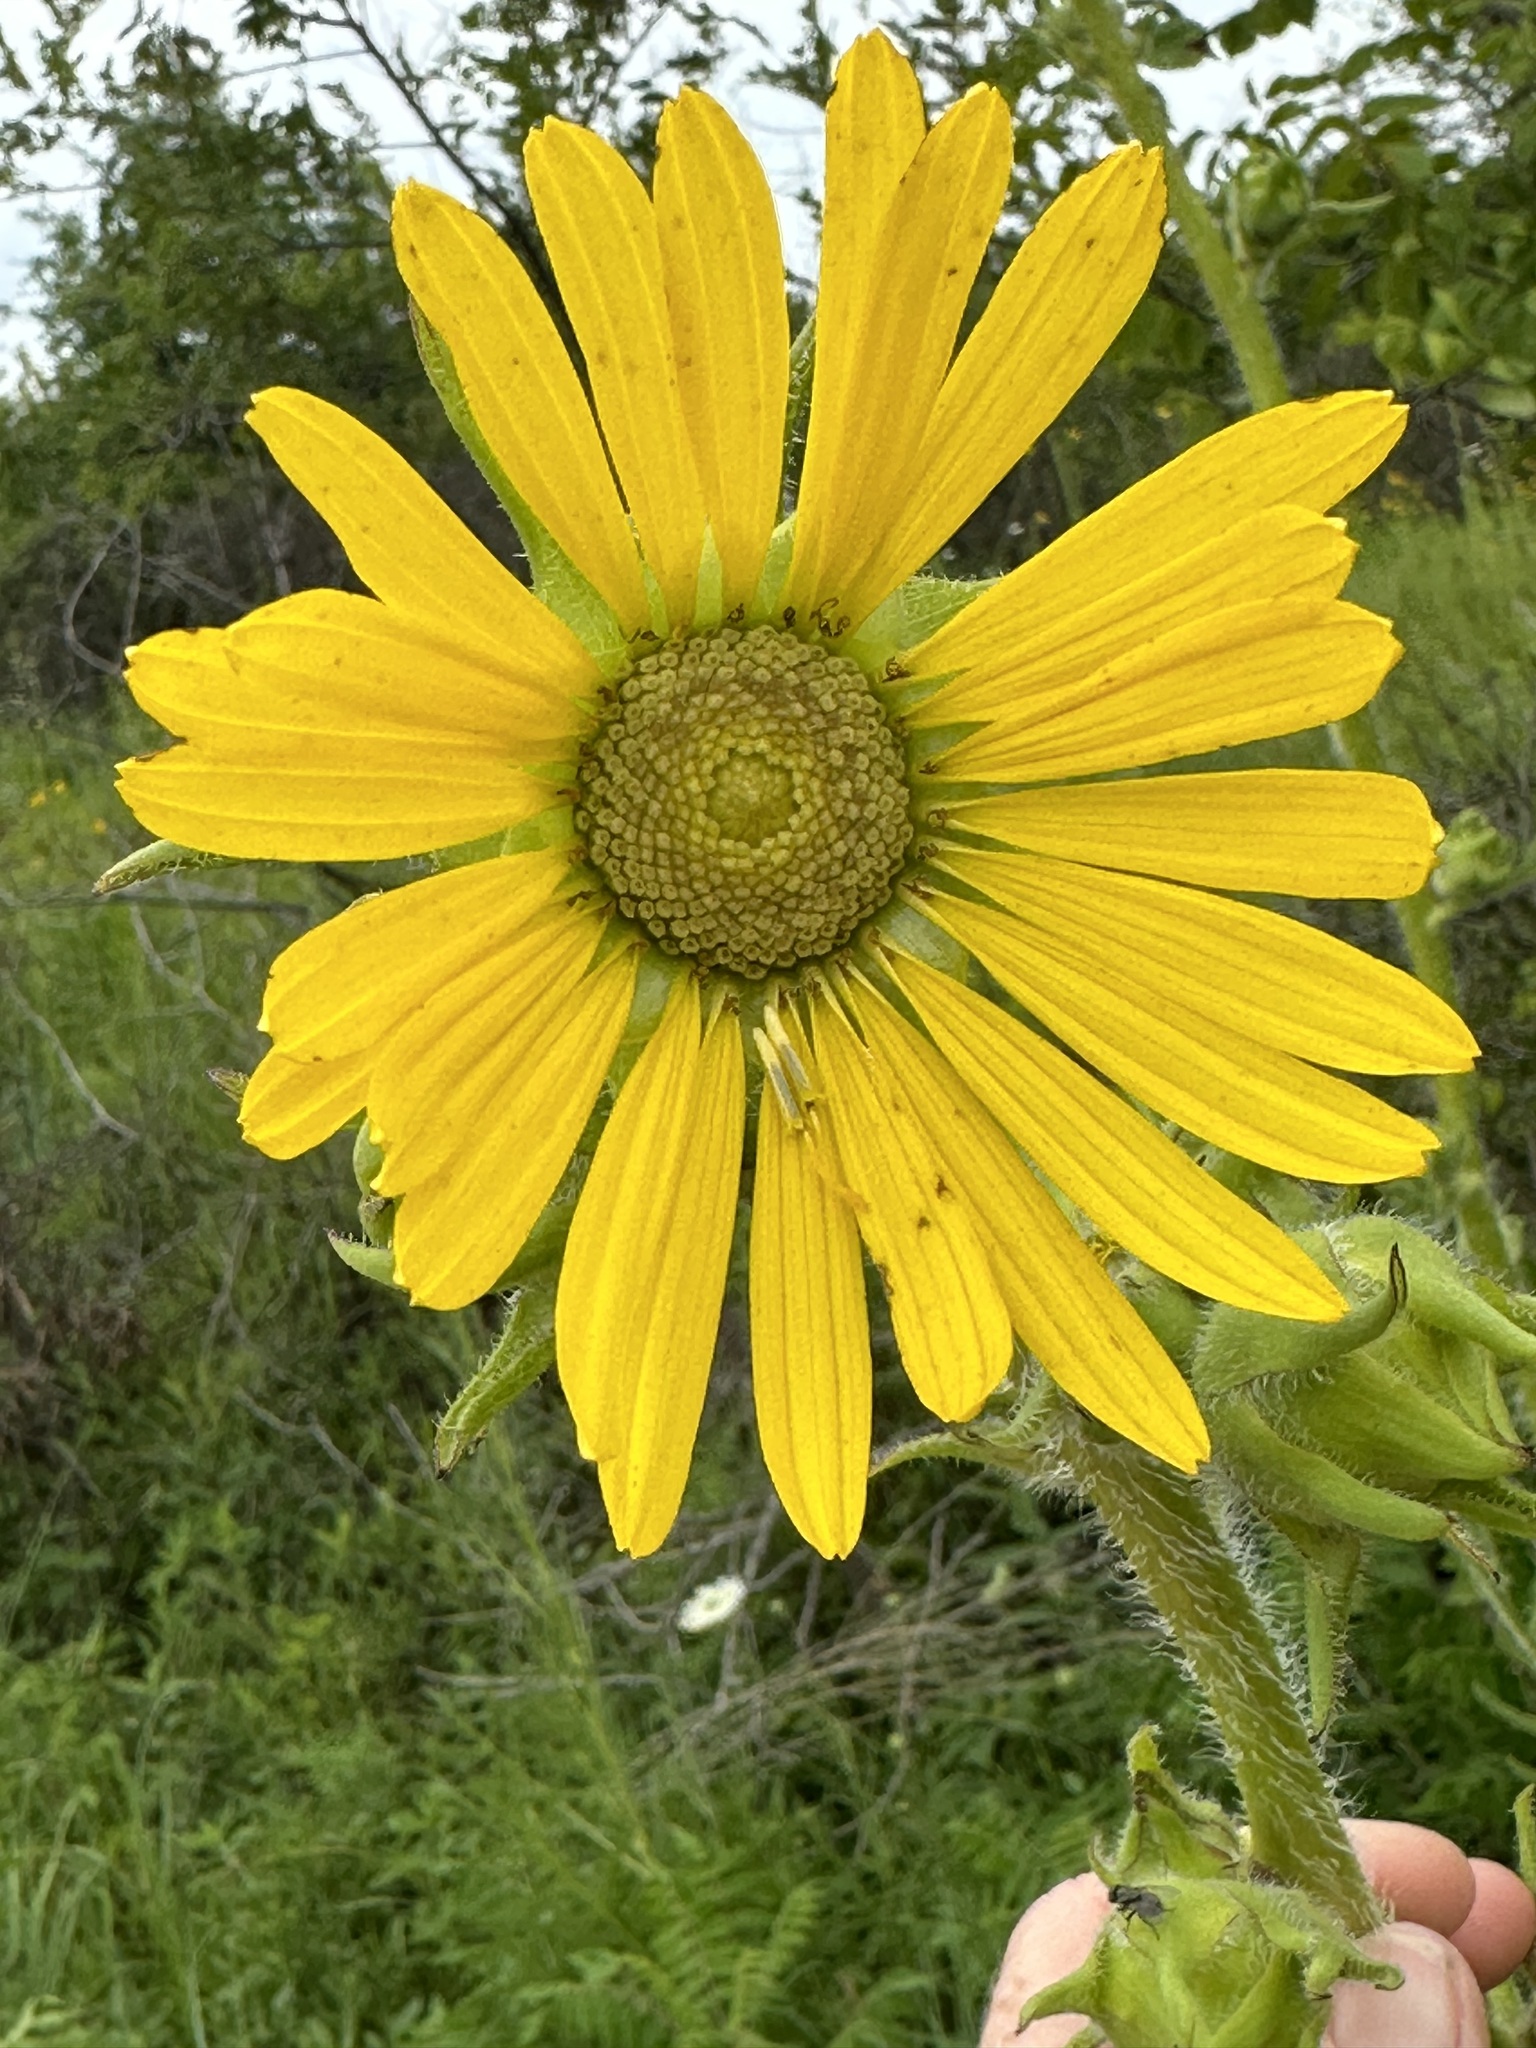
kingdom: Plantae
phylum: Tracheophyta
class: Magnoliopsida
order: Asterales
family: Asteraceae
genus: Silphium
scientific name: Silphium laciniatum
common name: Polarplant
